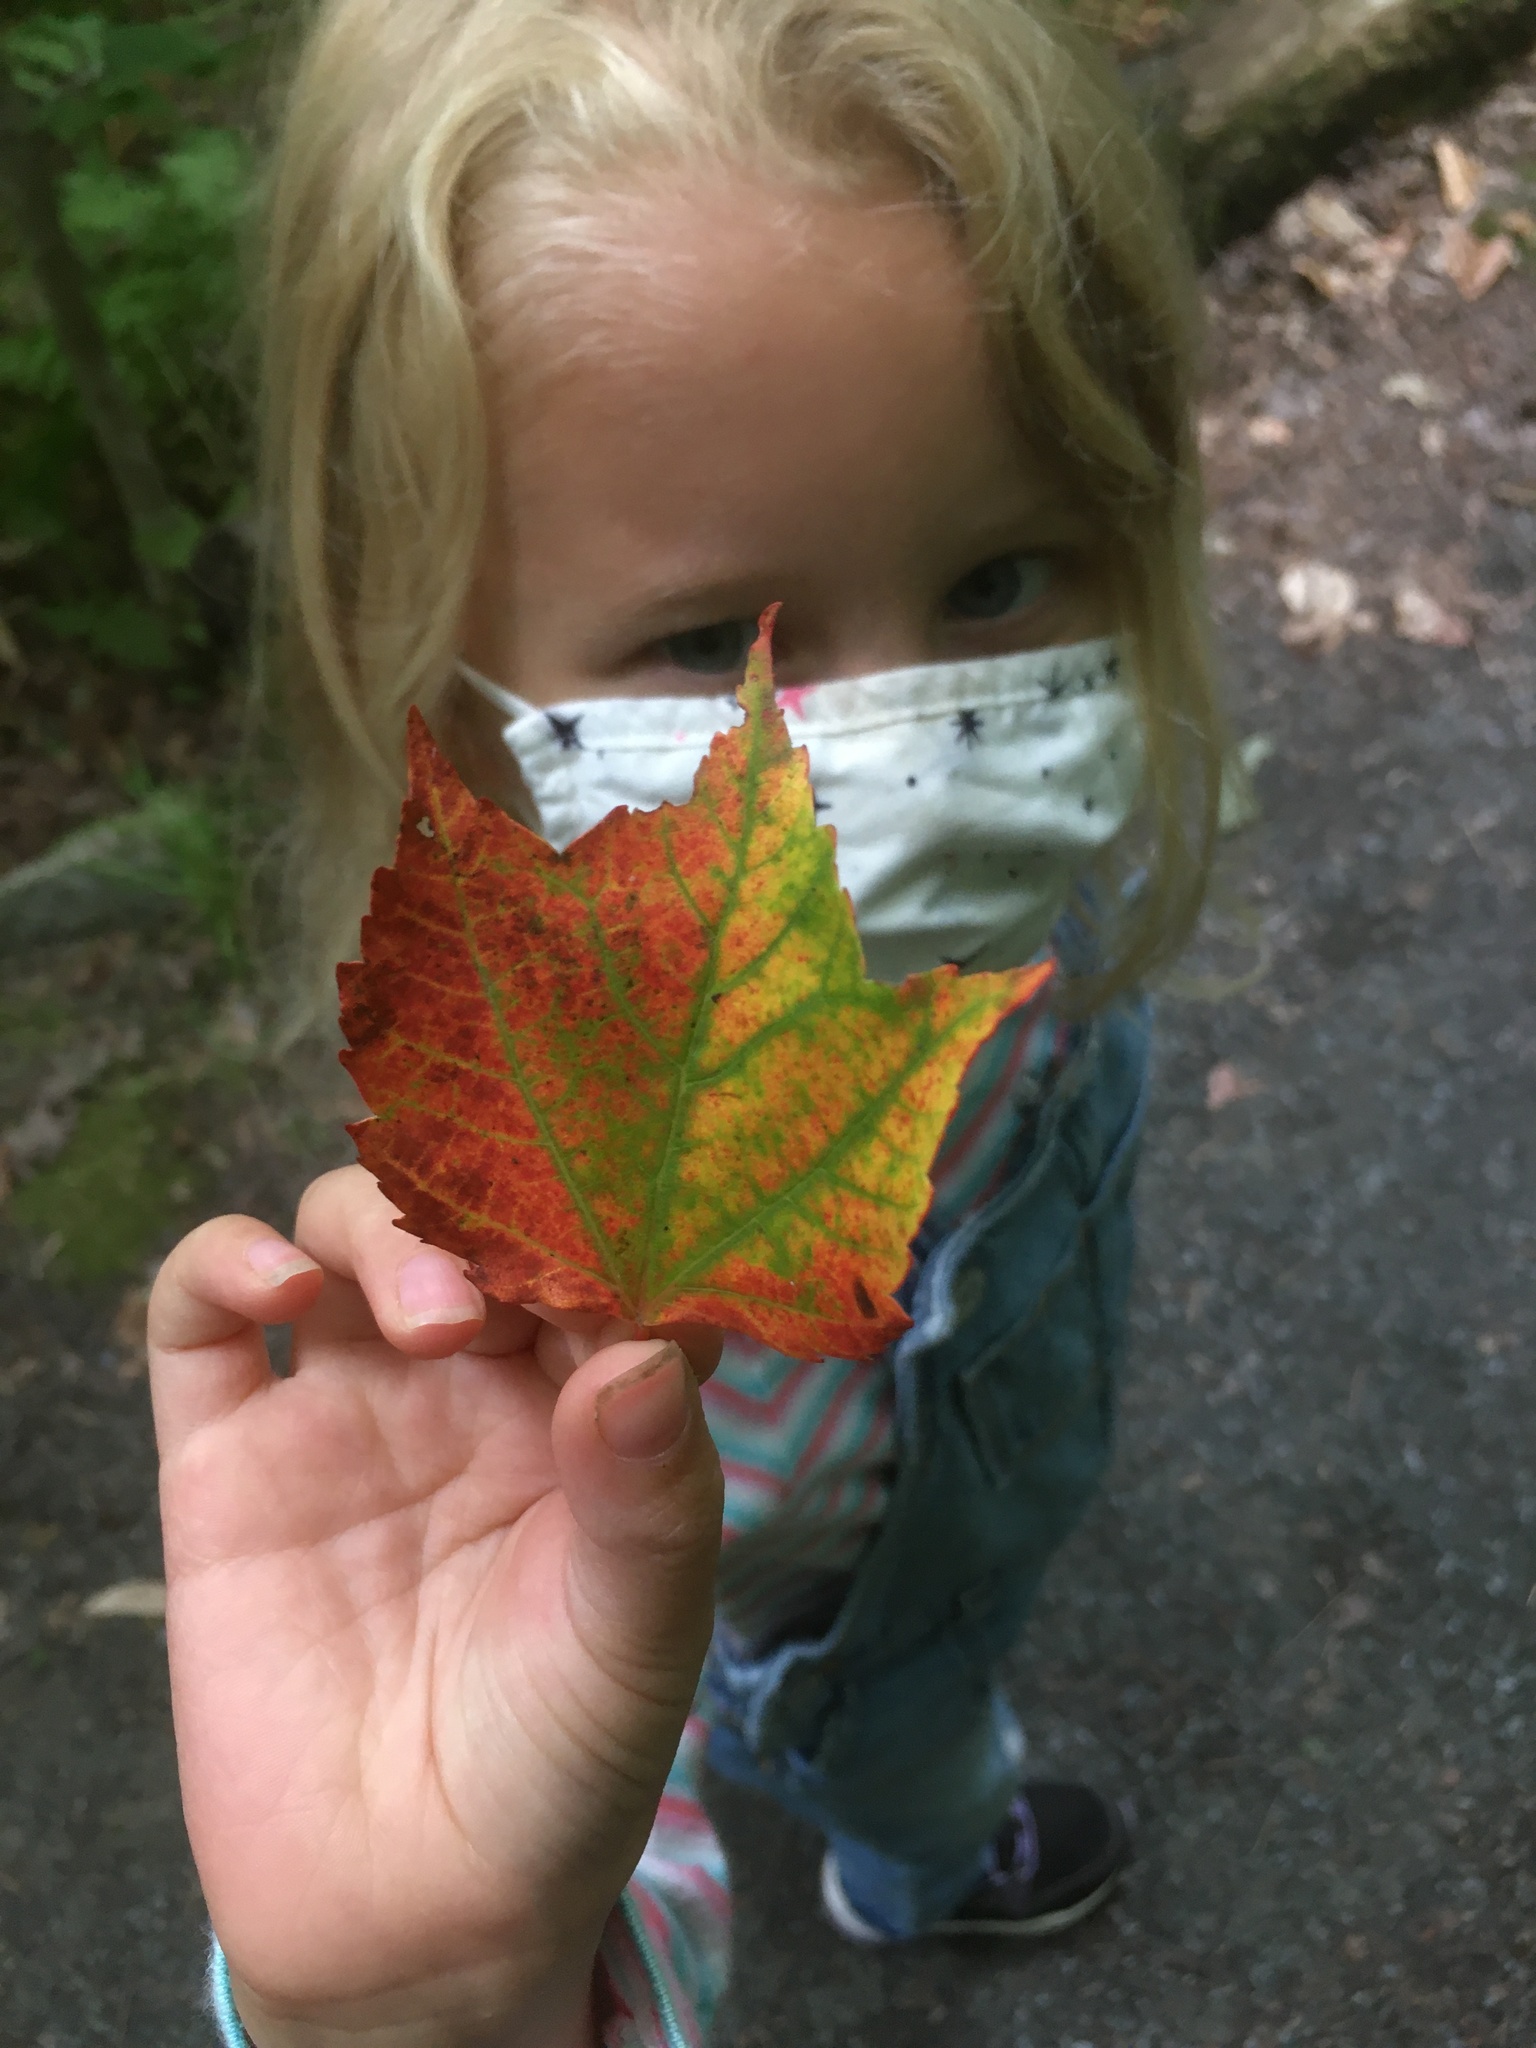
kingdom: Plantae
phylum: Tracheophyta
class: Magnoliopsida
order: Sapindales
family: Sapindaceae
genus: Acer
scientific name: Acer rubrum
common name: Red maple
